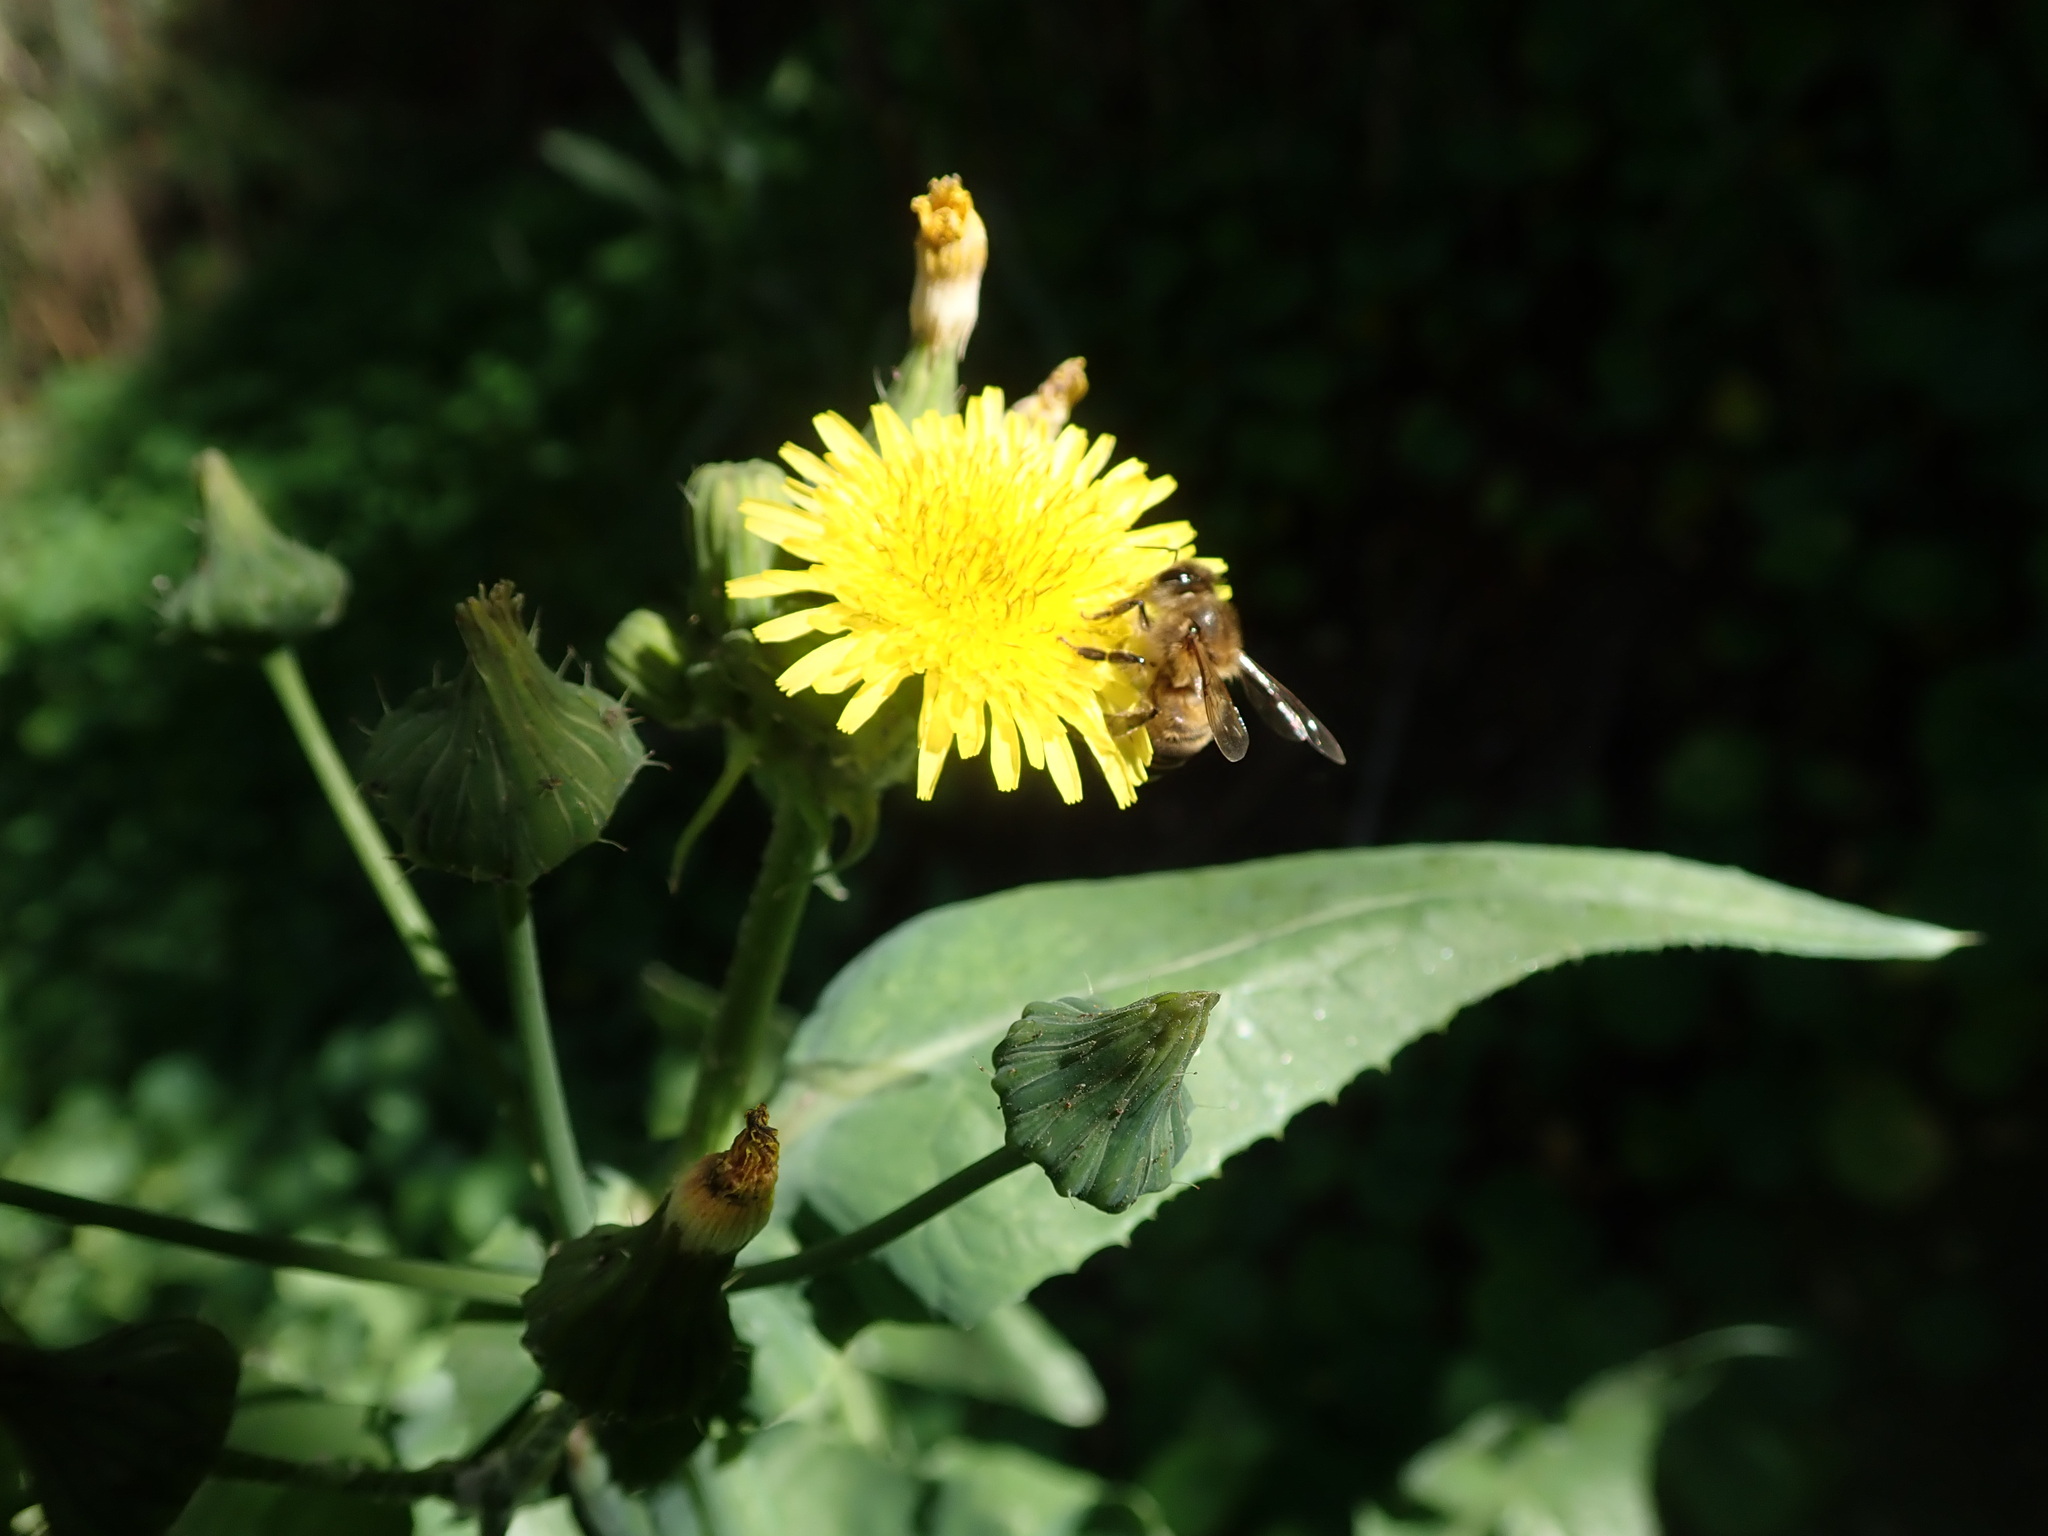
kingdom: Animalia
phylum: Arthropoda
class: Insecta
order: Hymenoptera
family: Apidae
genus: Apis
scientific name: Apis mellifera
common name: Honey bee
